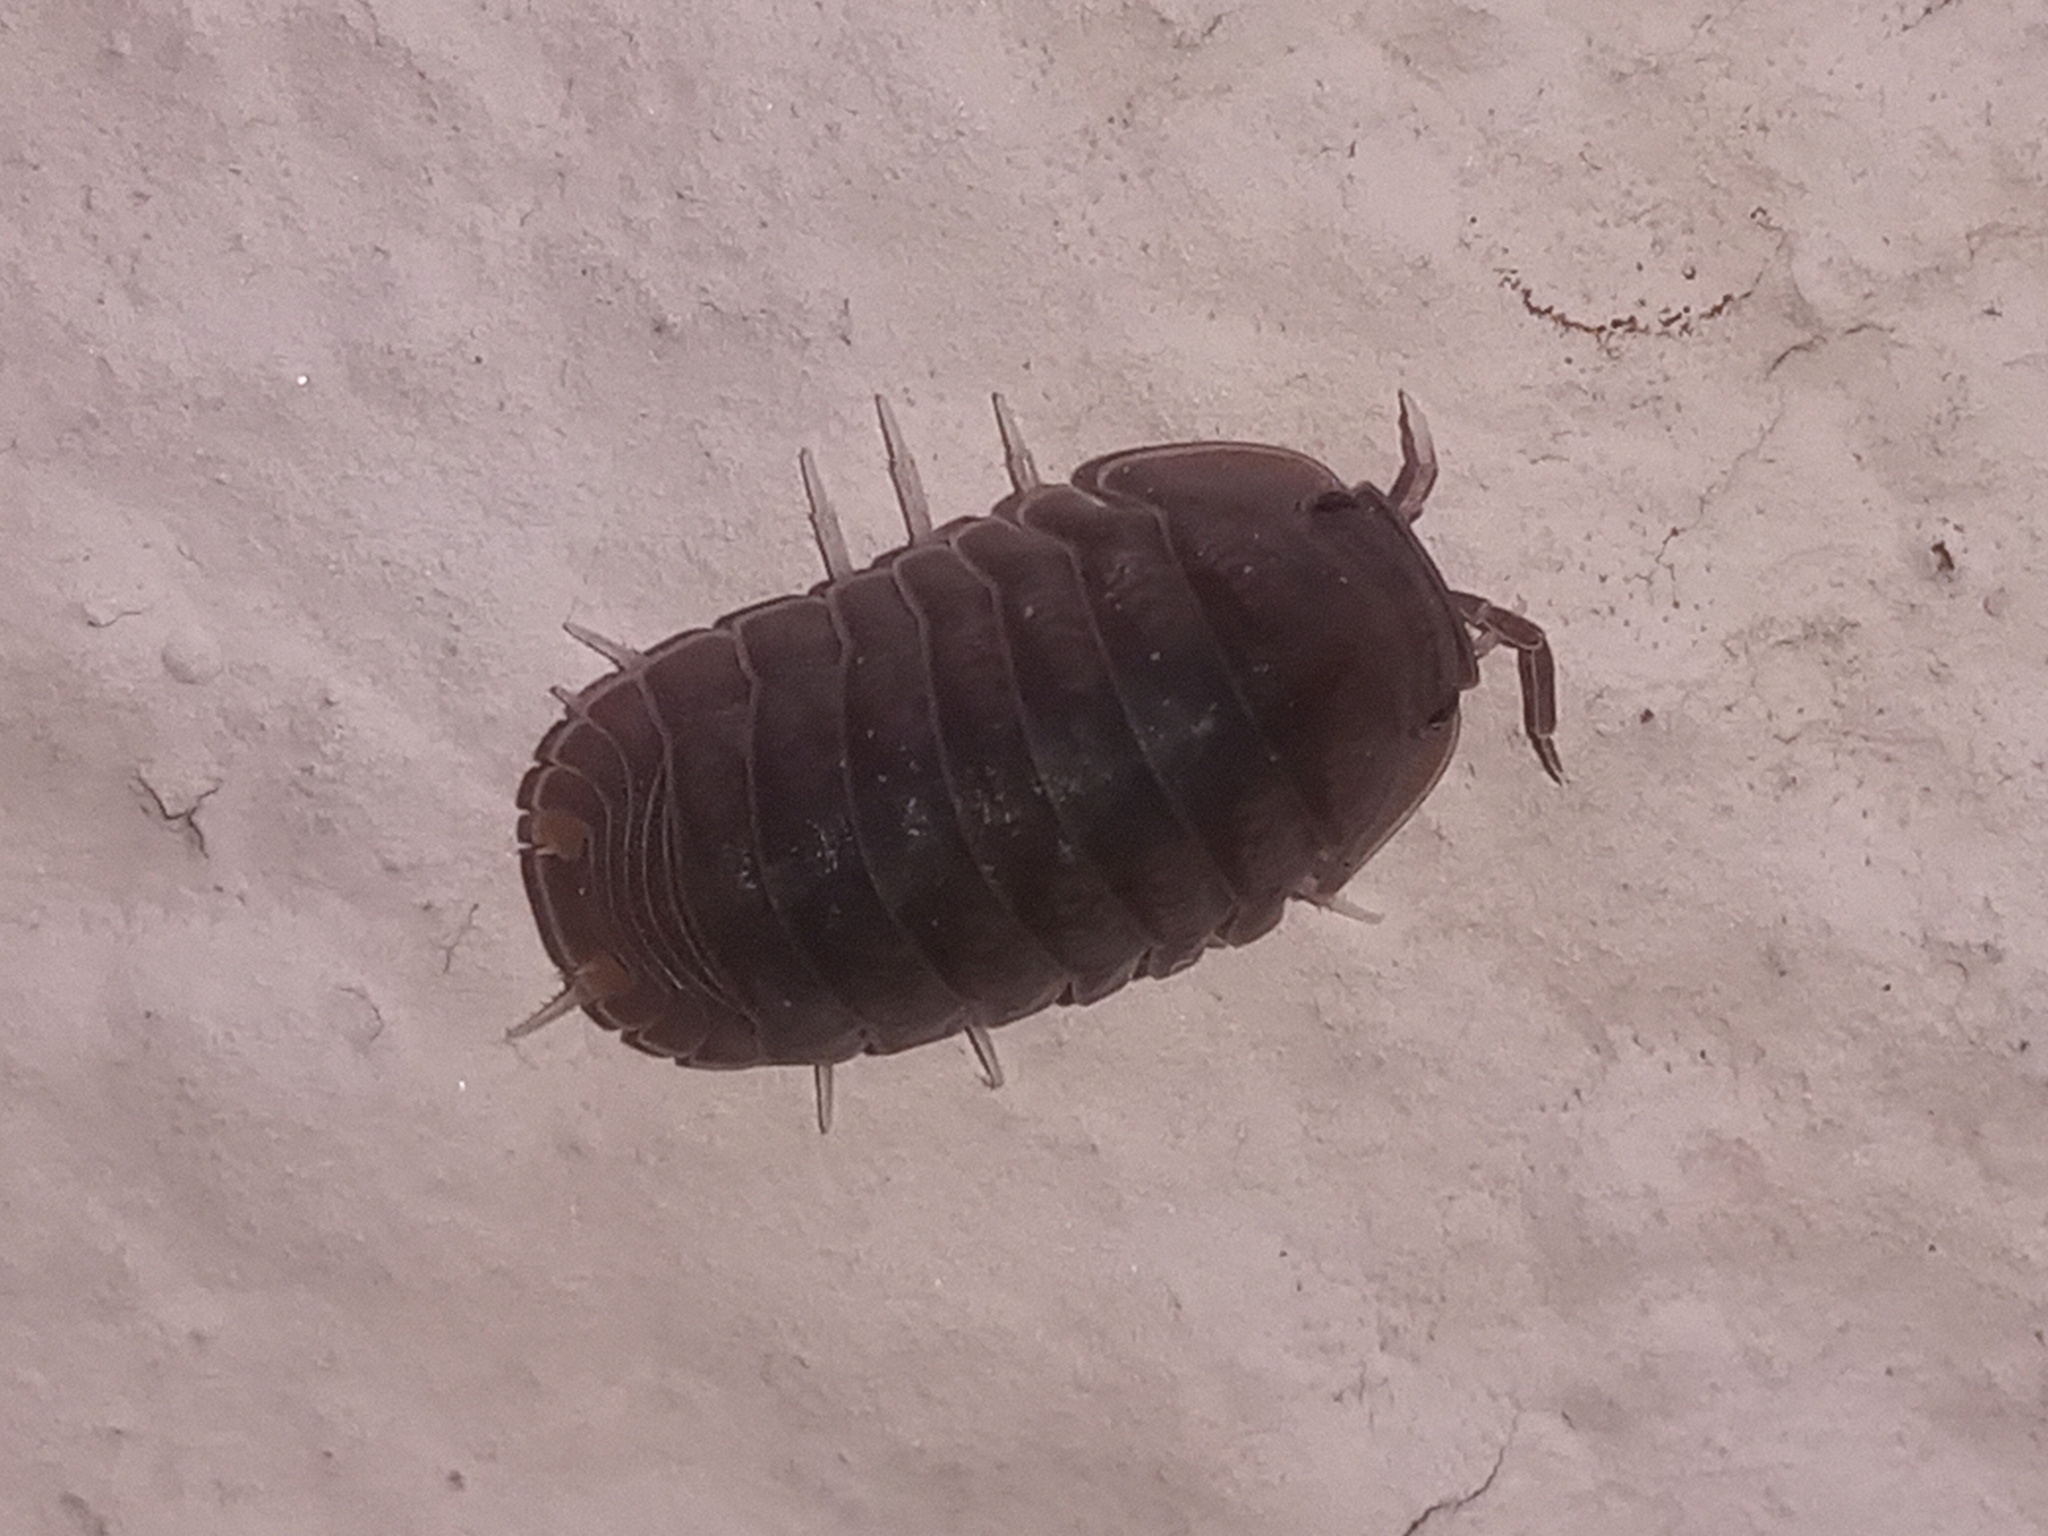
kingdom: Animalia
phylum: Arthropoda
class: Malacostraca
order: Isopoda
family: Armadillidae
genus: Cubaris
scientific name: Cubaris murina
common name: Pillbug
